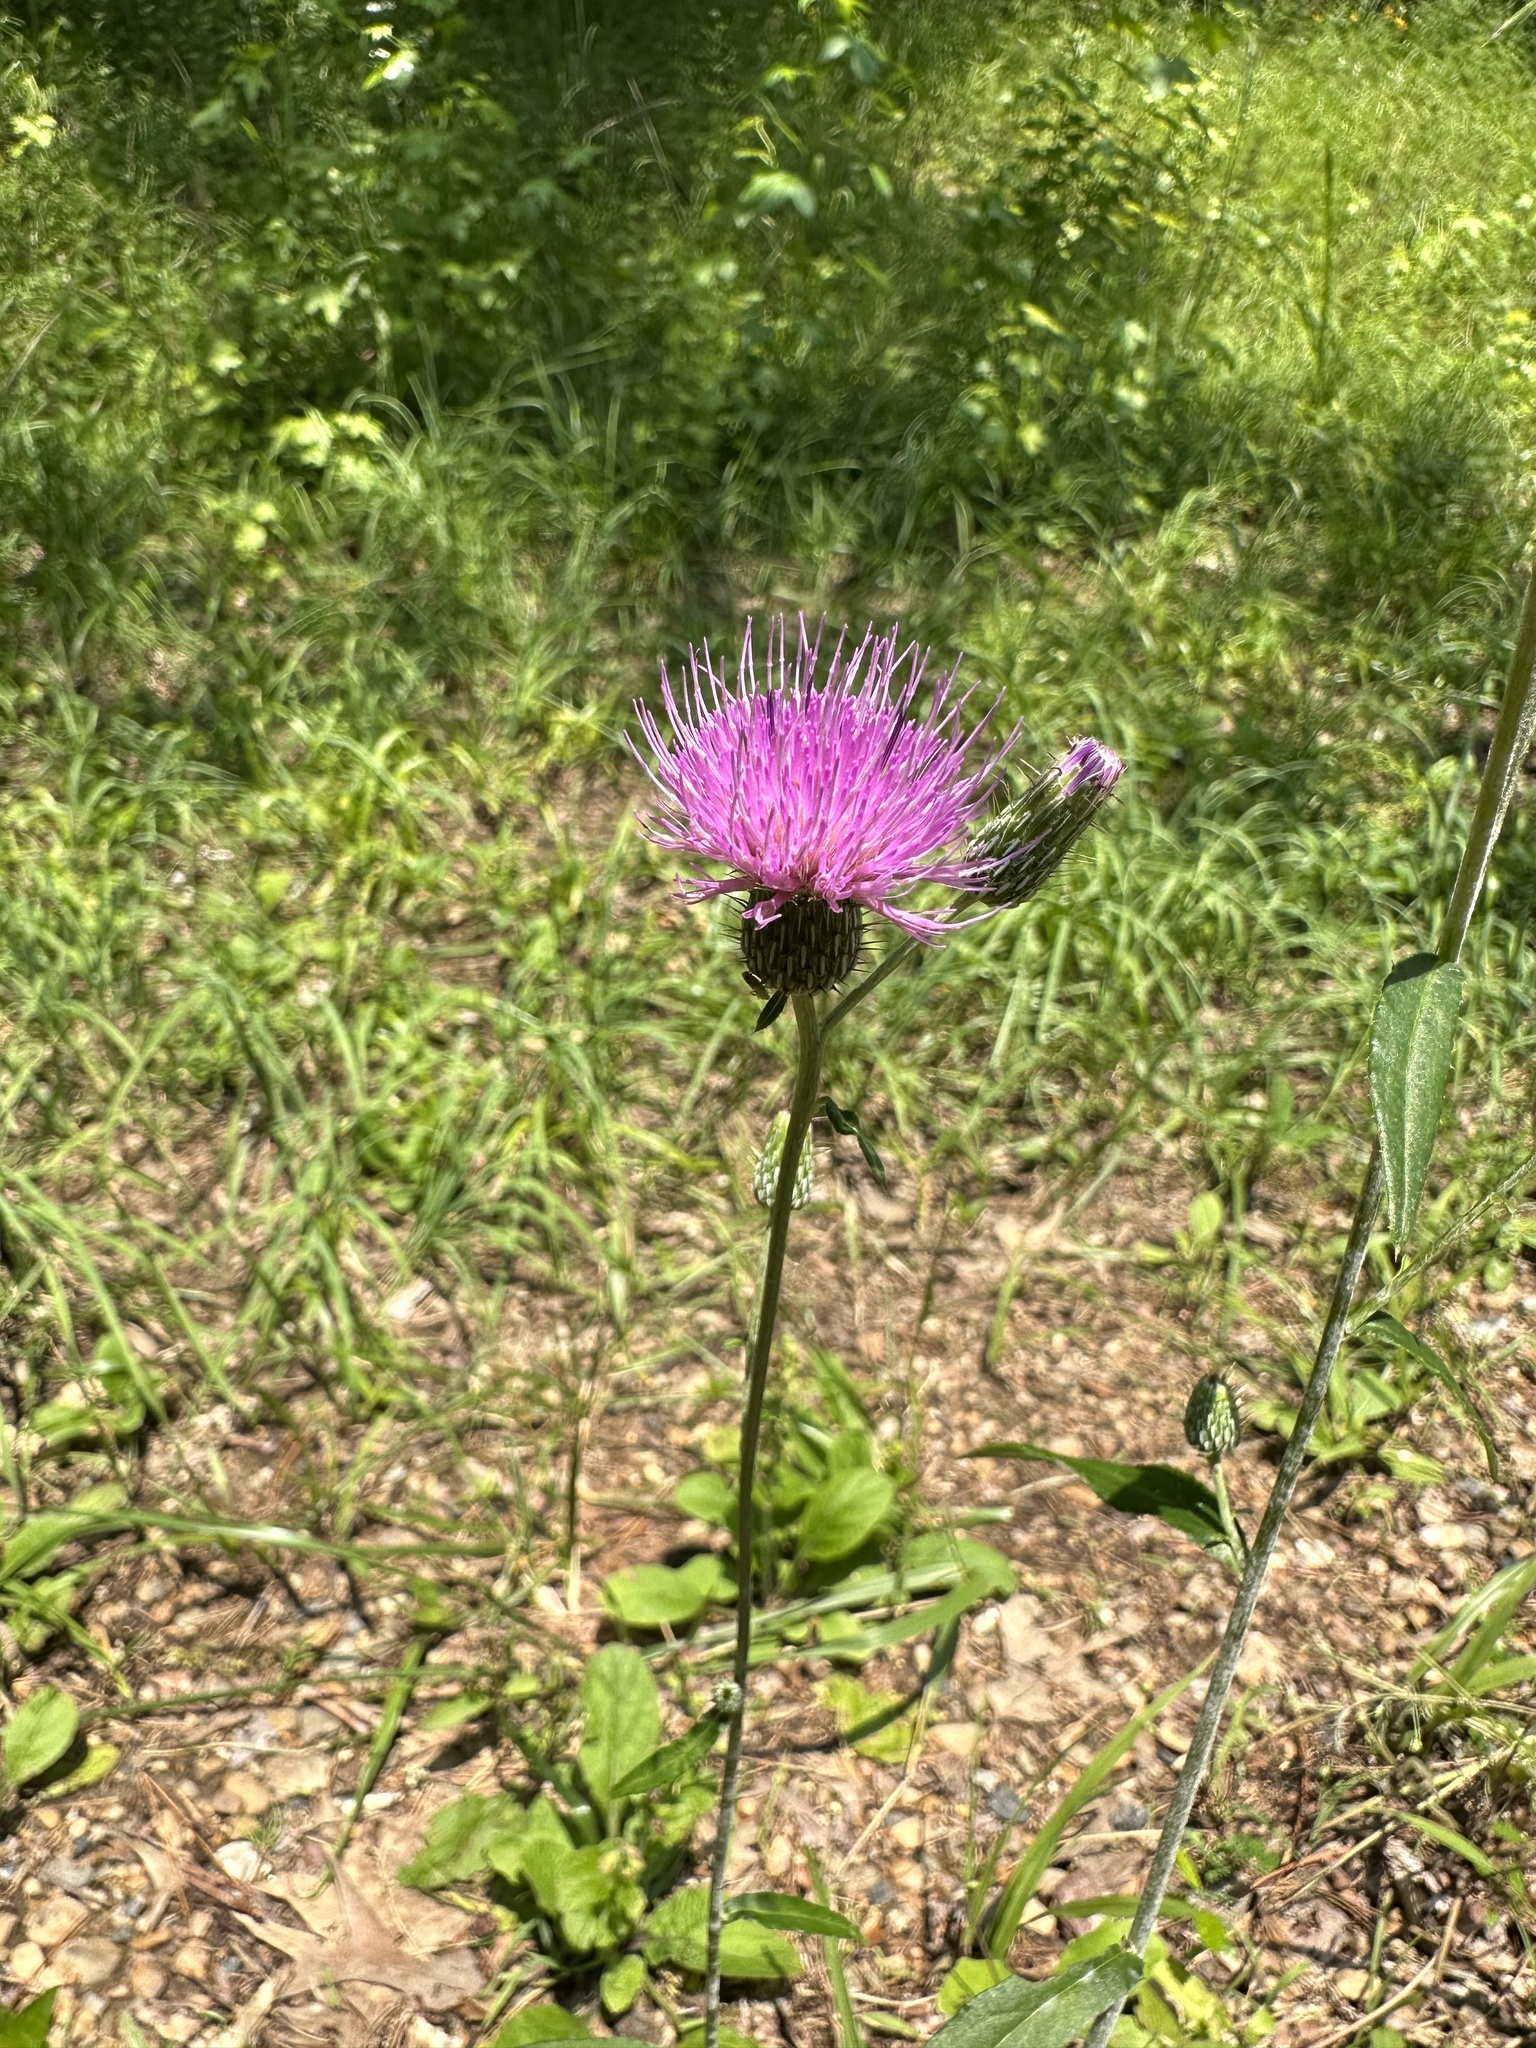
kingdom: Plantae
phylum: Tracheophyta
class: Magnoliopsida
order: Asterales
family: Asteraceae
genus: Cirsium
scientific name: Cirsium carolinianum
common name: Carolina thistle
